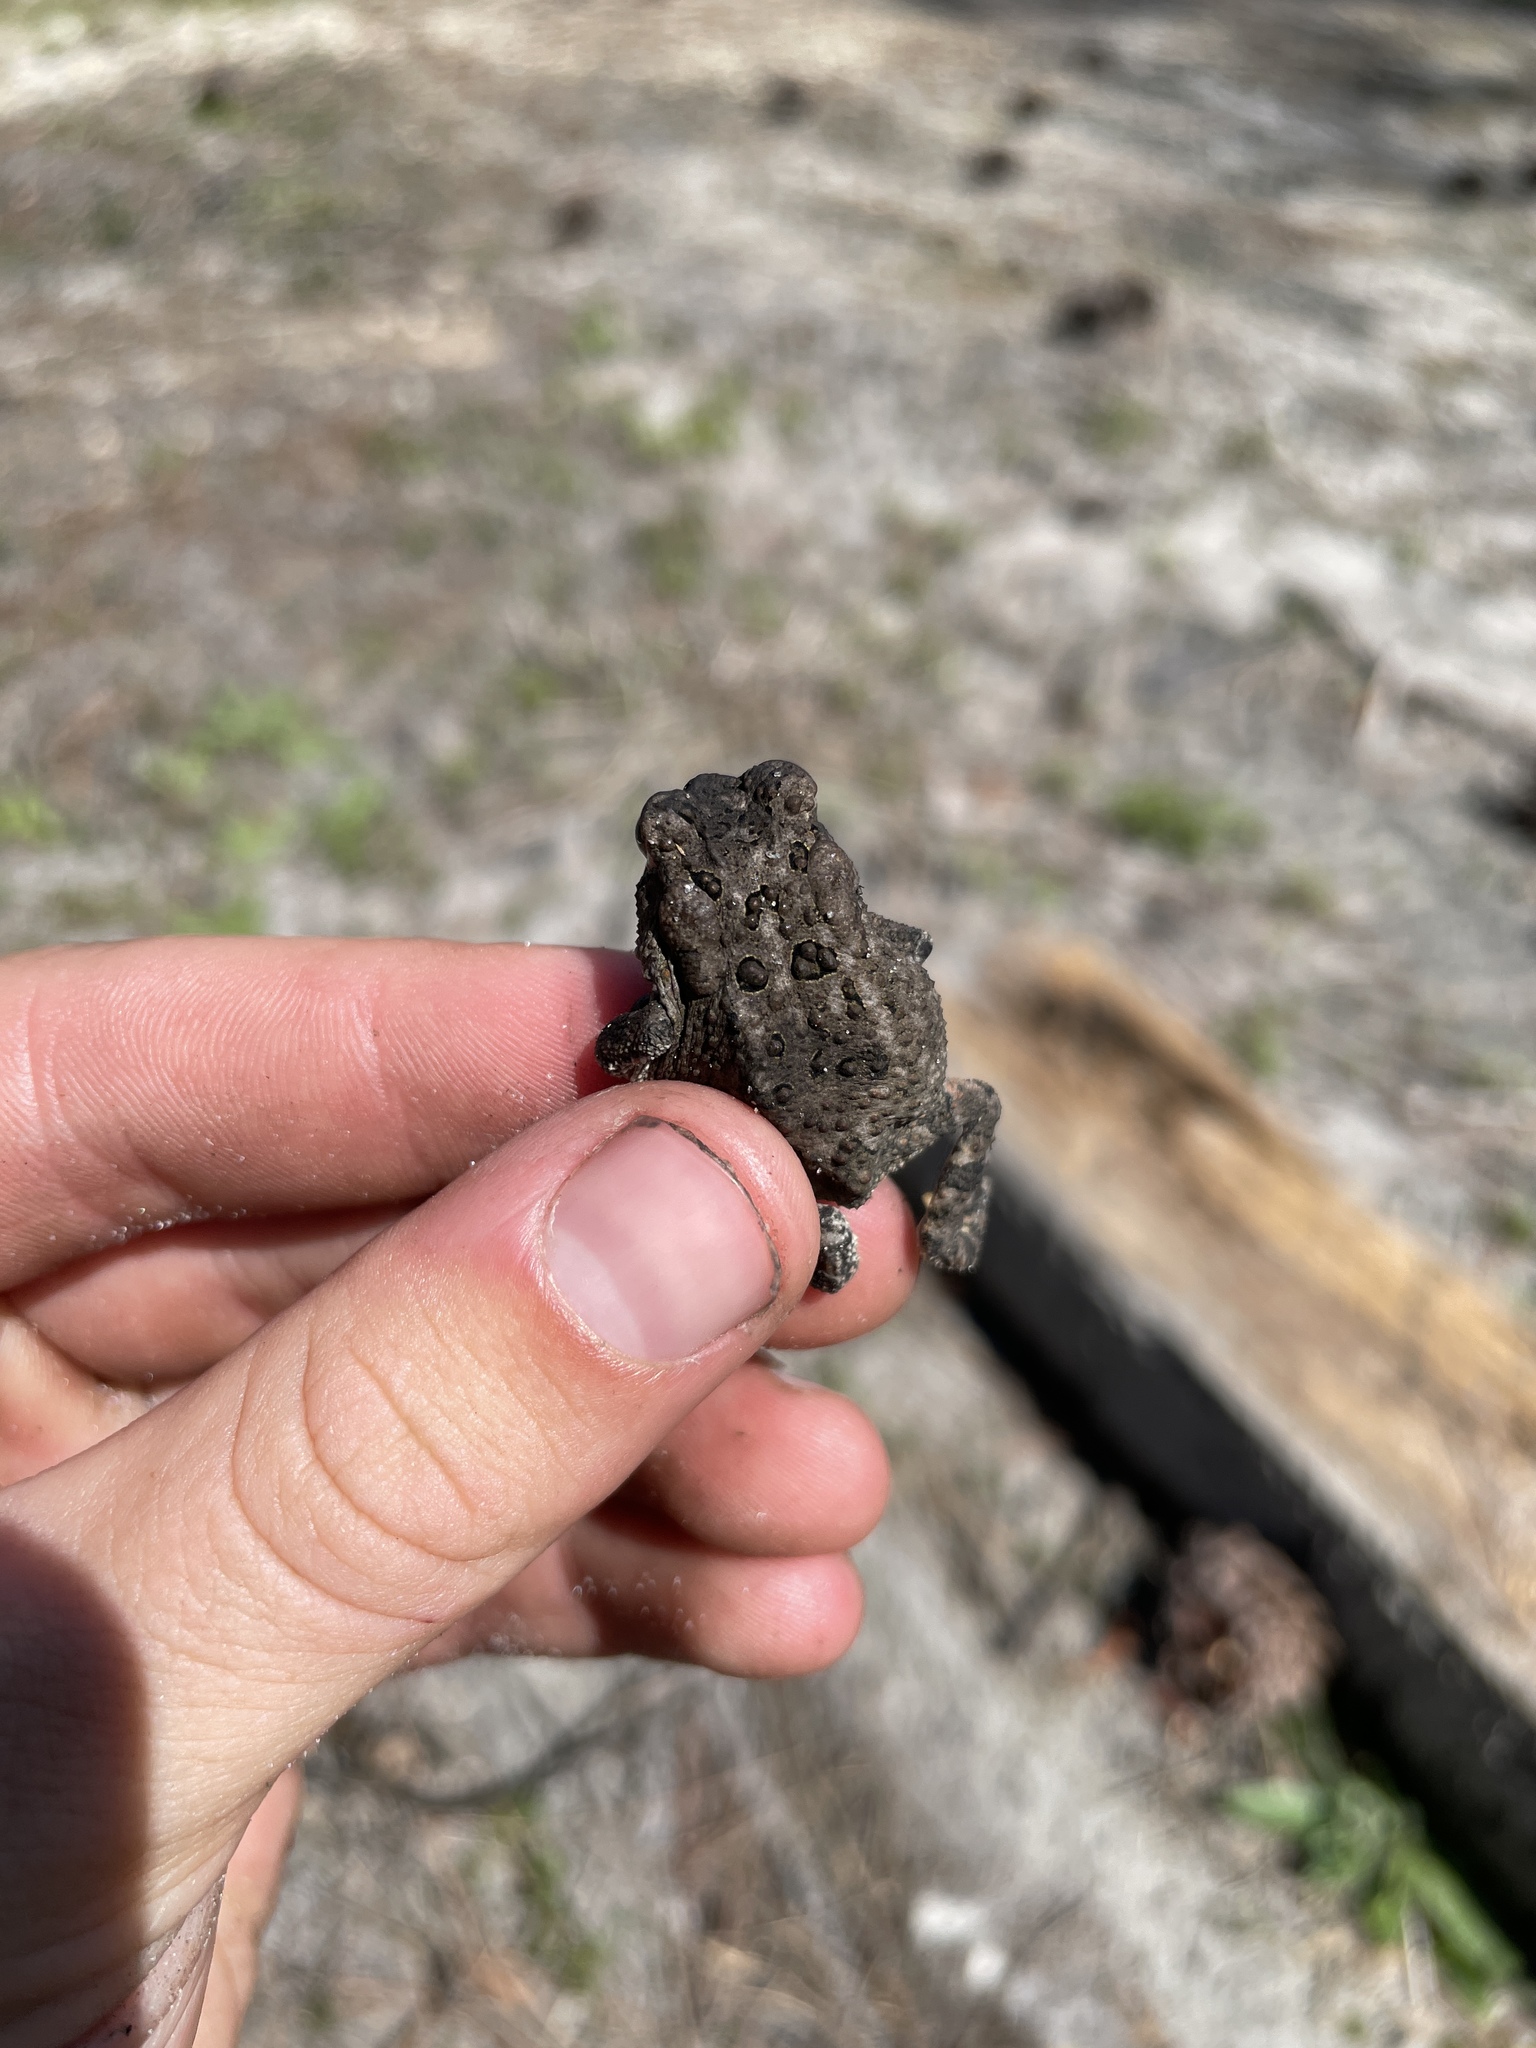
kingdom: Animalia
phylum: Chordata
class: Amphibia
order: Anura
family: Bufonidae
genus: Anaxyrus
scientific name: Anaxyrus terrestris
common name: Southern toad
